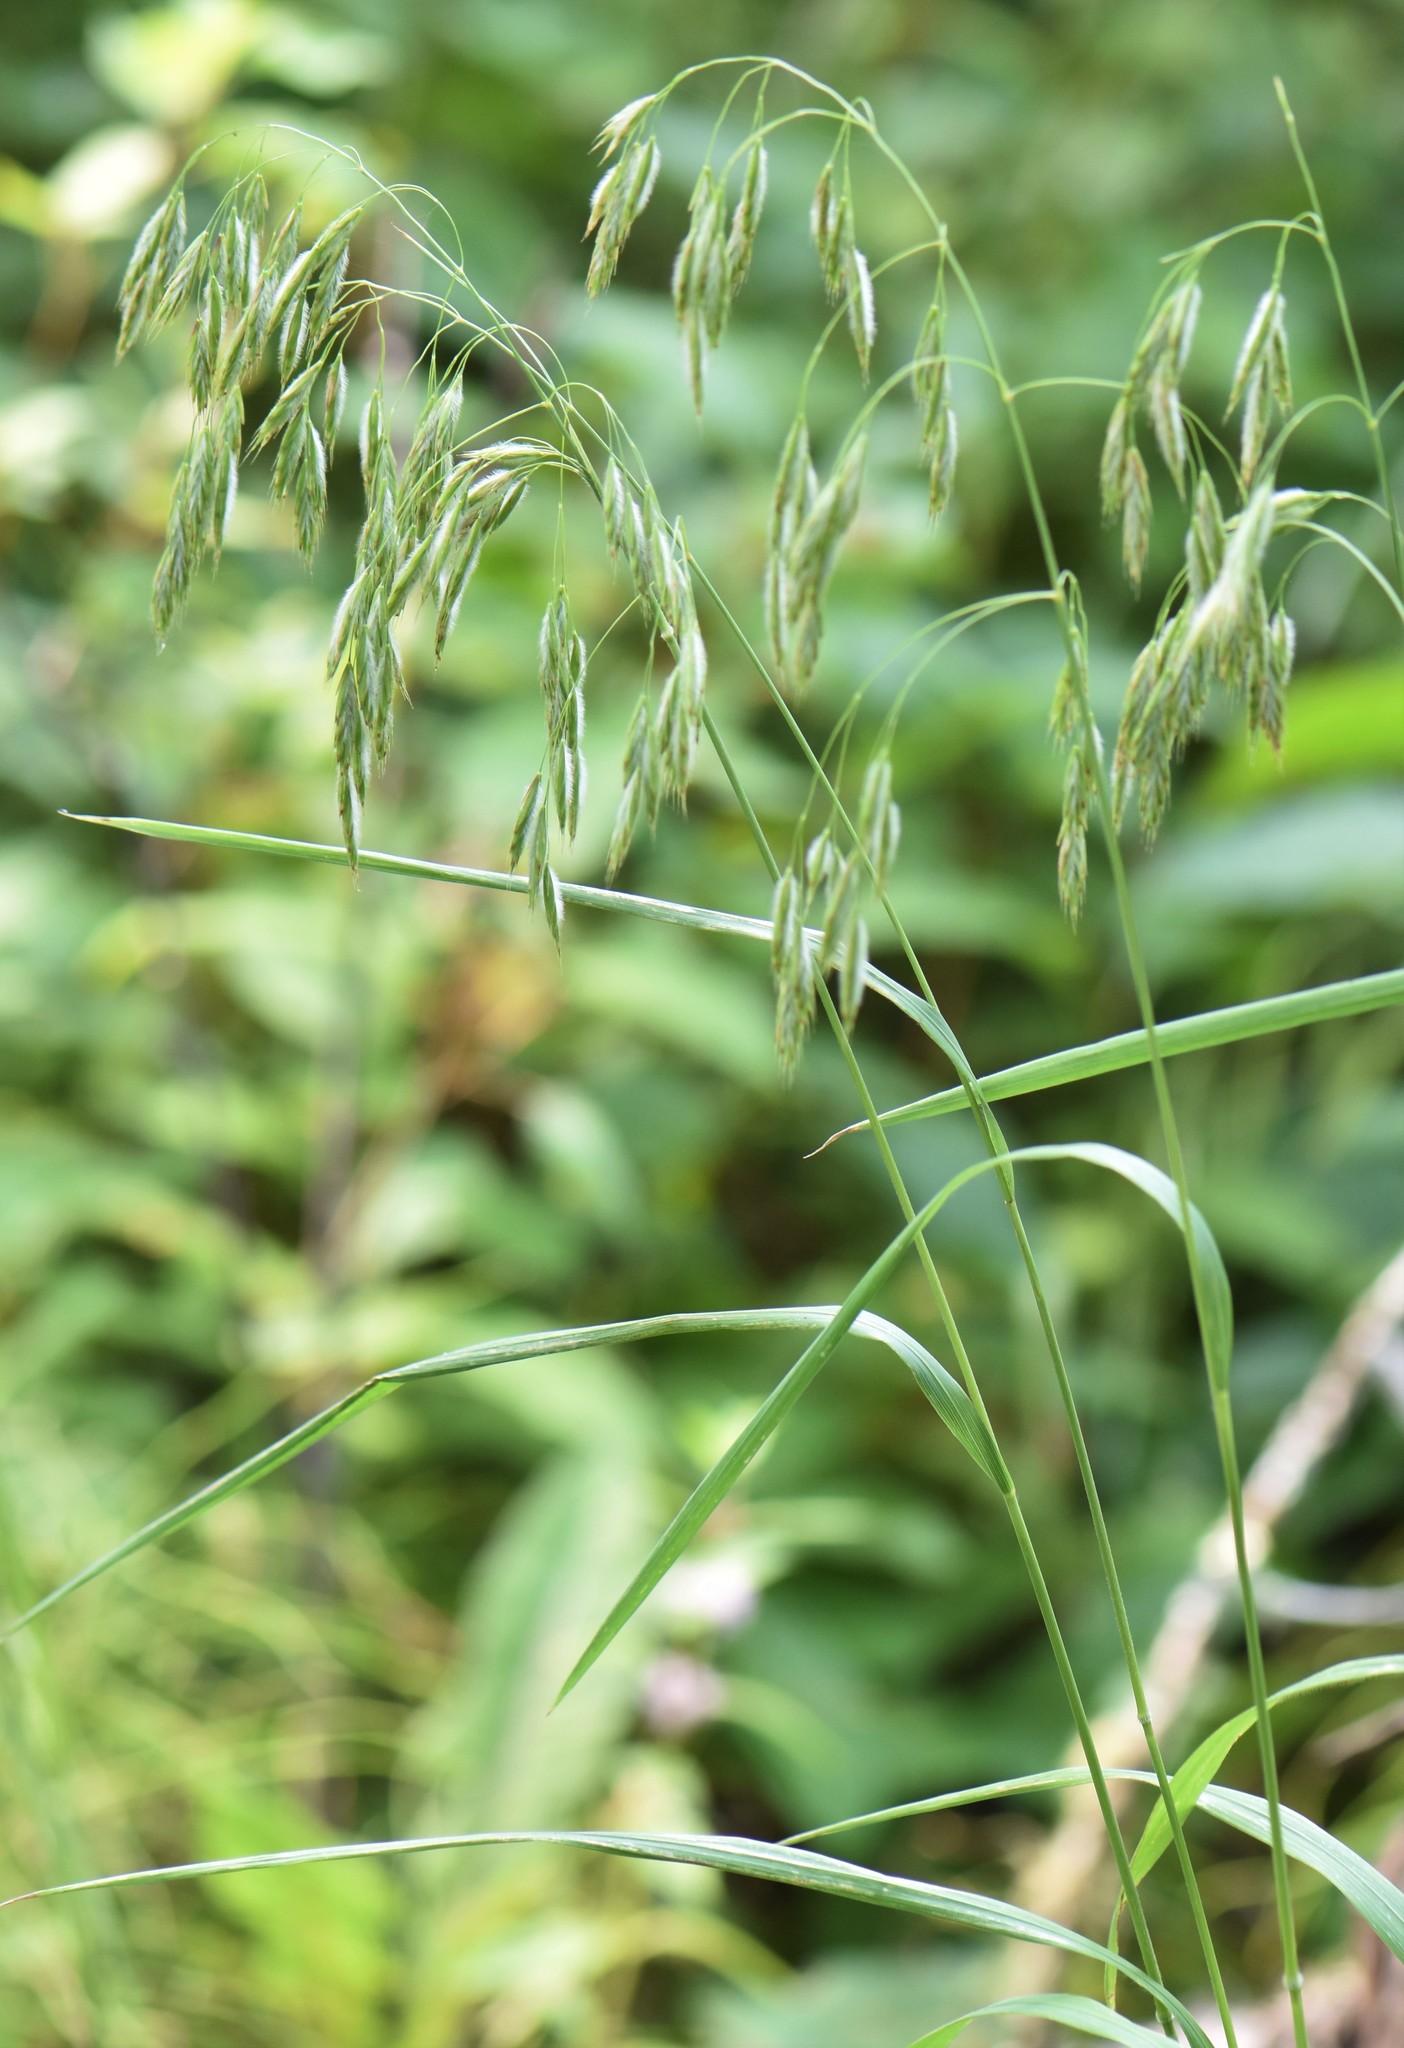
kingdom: Plantae
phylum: Tracheophyta
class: Liliopsida
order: Poales
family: Poaceae
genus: Bromus
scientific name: Bromus ciliatus
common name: Fringe brome
